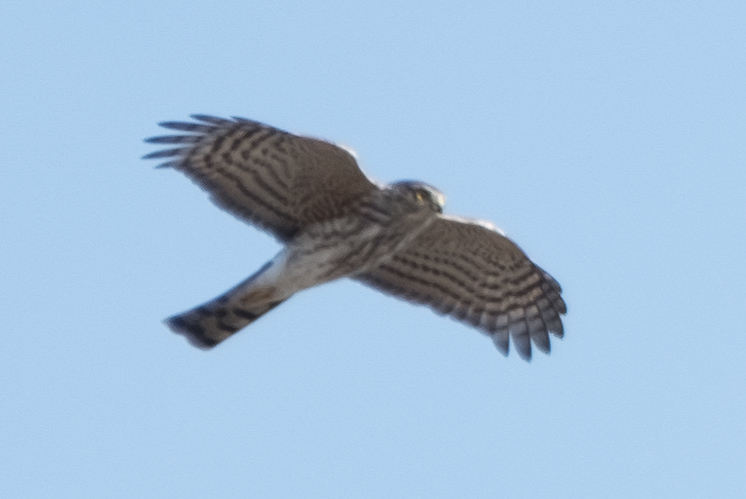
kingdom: Animalia
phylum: Chordata
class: Aves
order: Accipitriformes
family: Accipitridae
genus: Accipiter
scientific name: Accipiter striatus
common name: Sharp-shinned hawk
